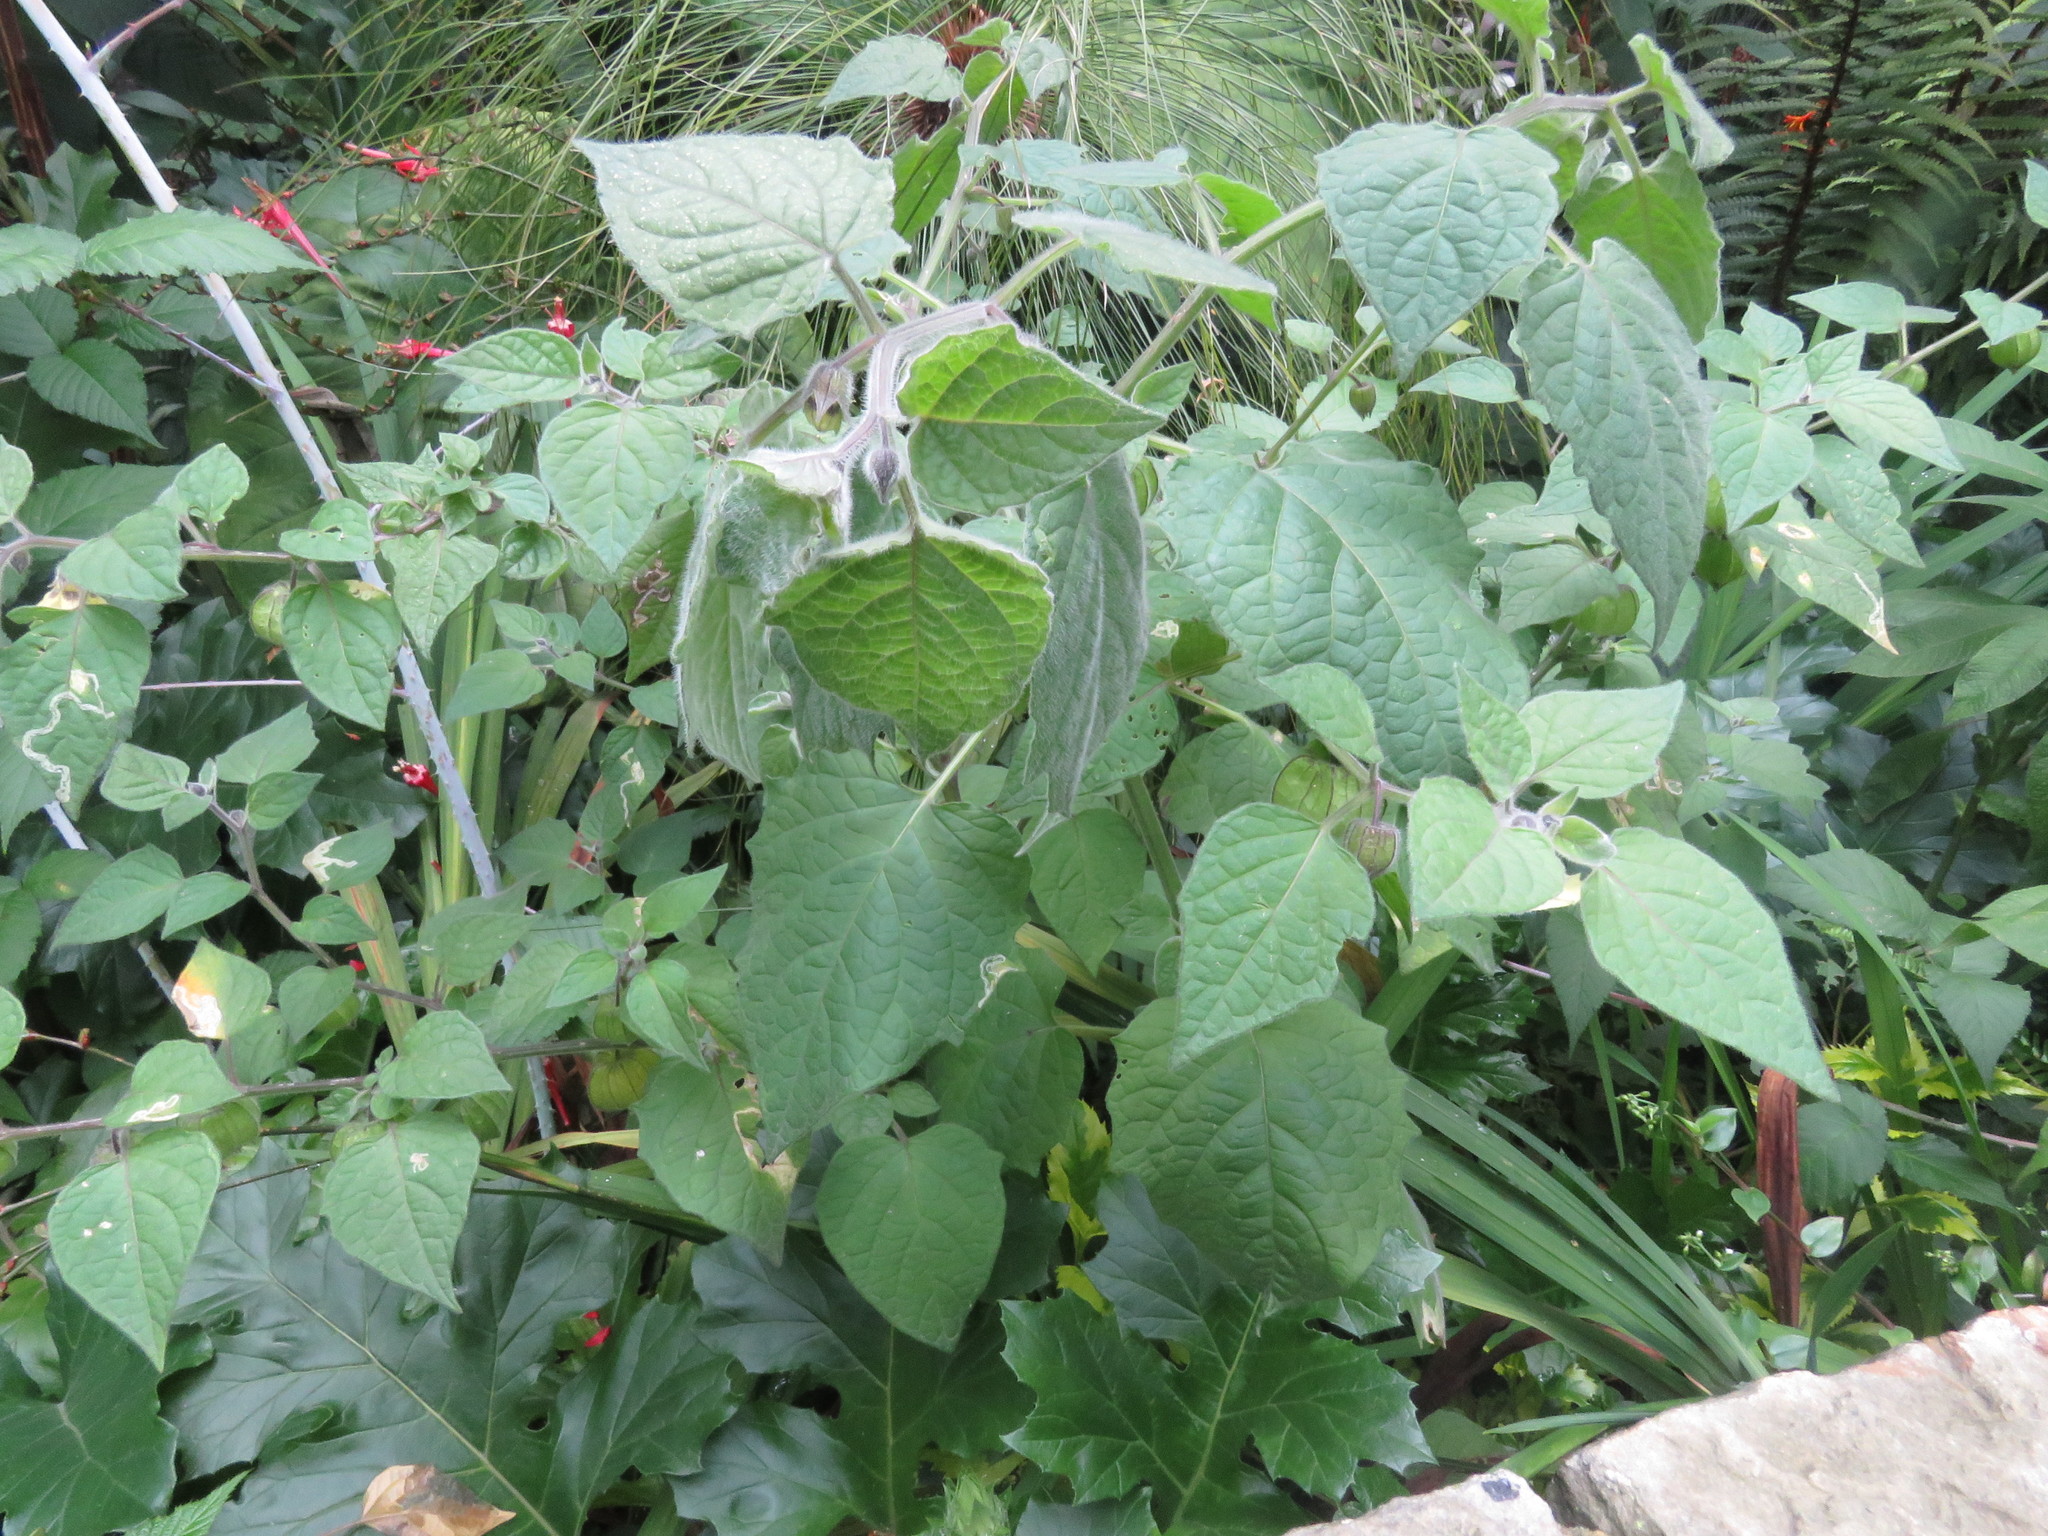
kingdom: Plantae
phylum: Tracheophyta
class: Magnoliopsida
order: Solanales
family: Solanaceae
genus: Physalis
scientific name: Physalis peruviana
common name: Cape-gooseberry
